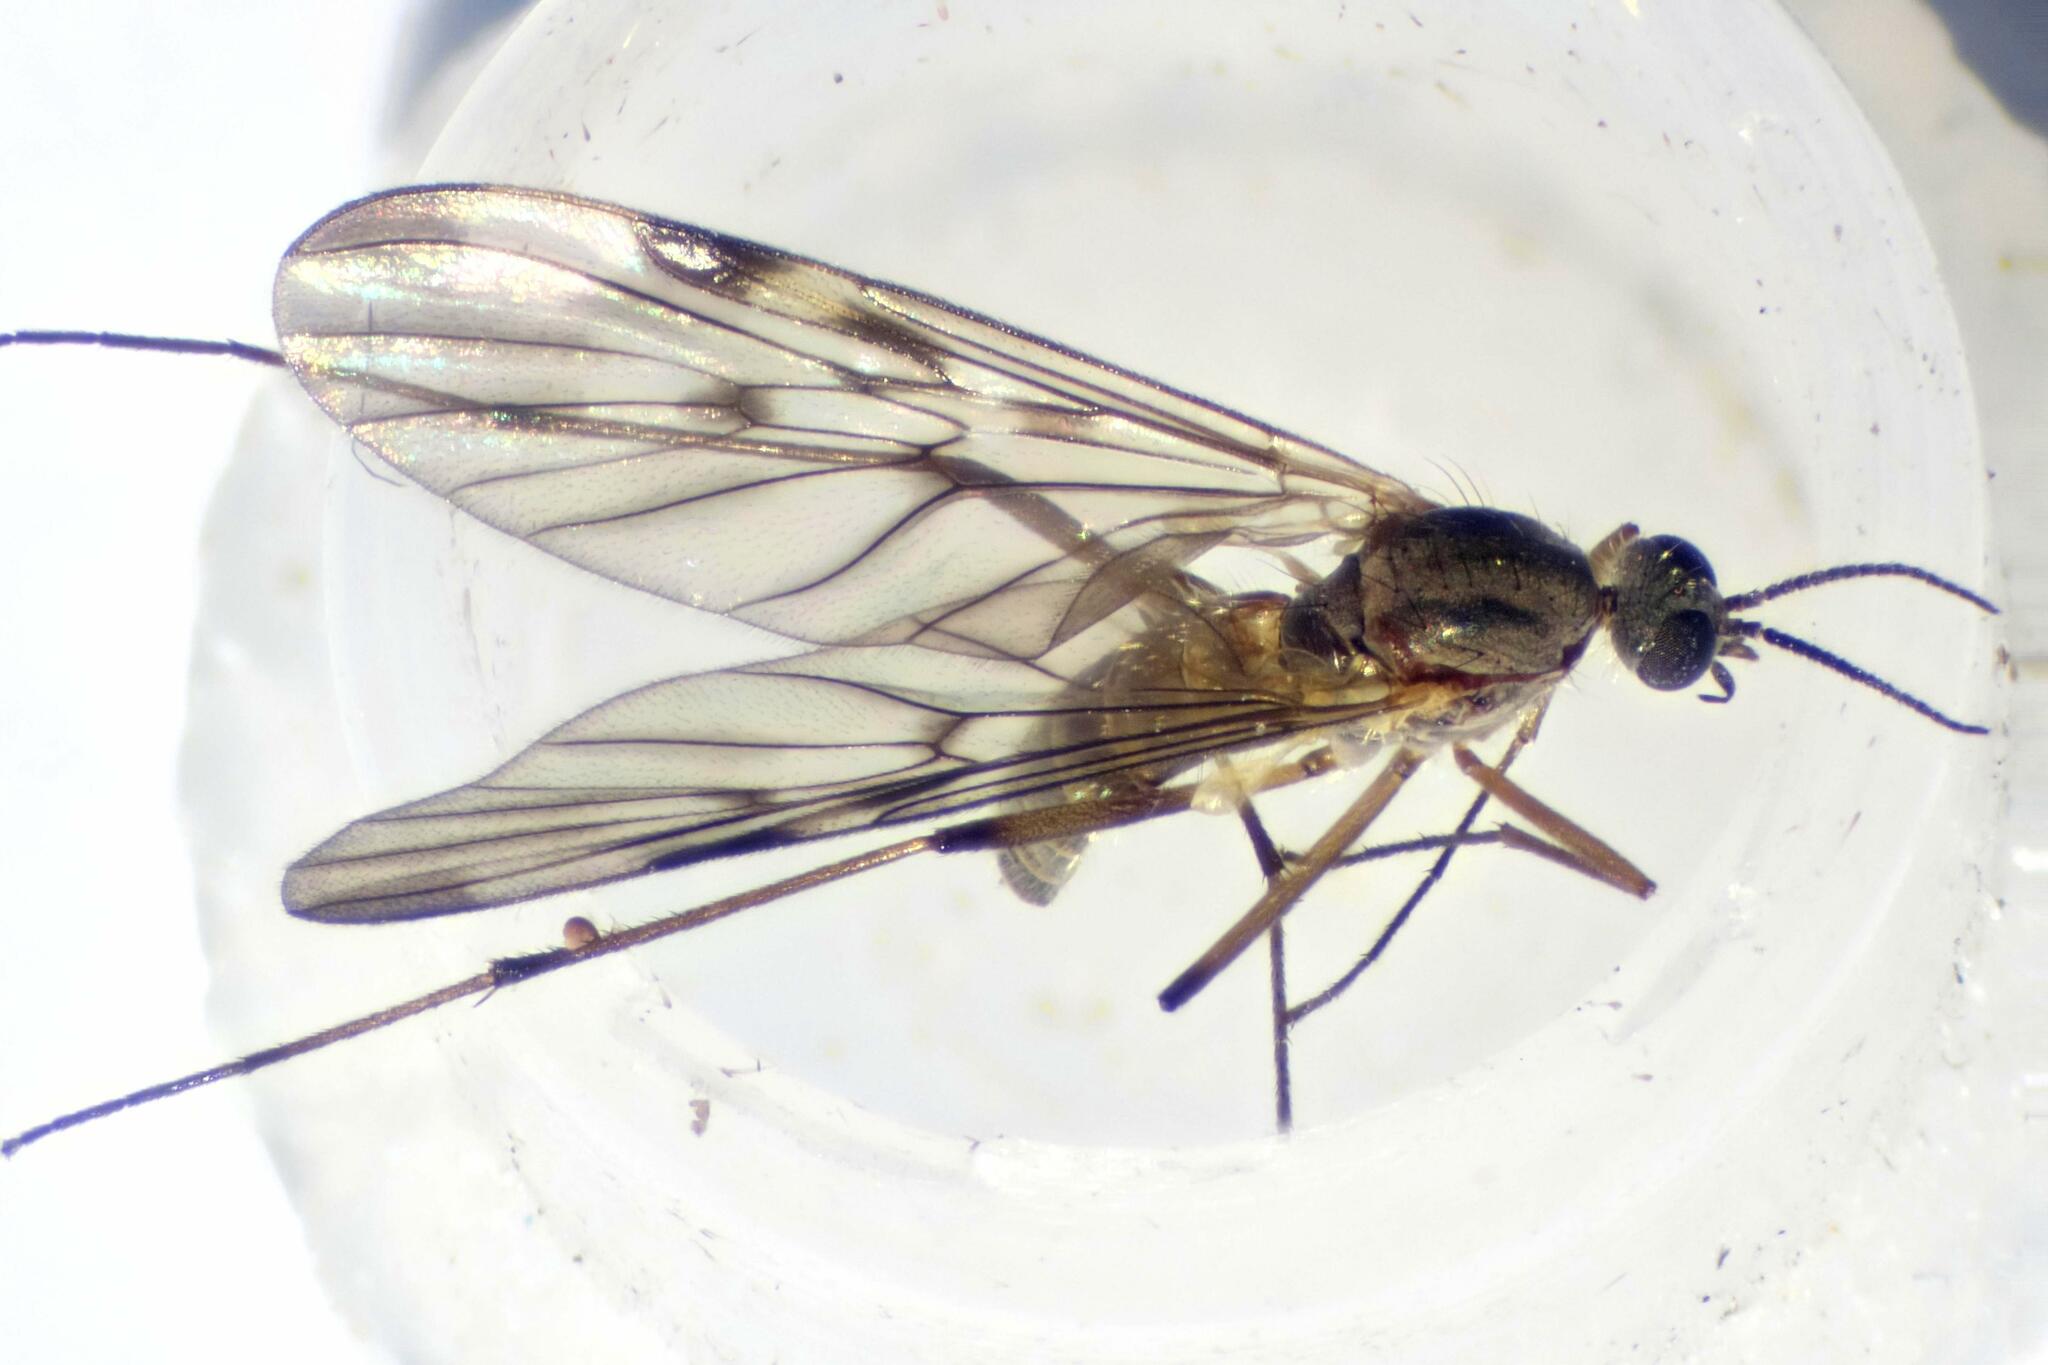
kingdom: Animalia
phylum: Arthropoda
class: Insecta
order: Diptera
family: Anisopodidae
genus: Sylvicola
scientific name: Sylvicola cinctus
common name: Wood gnat
